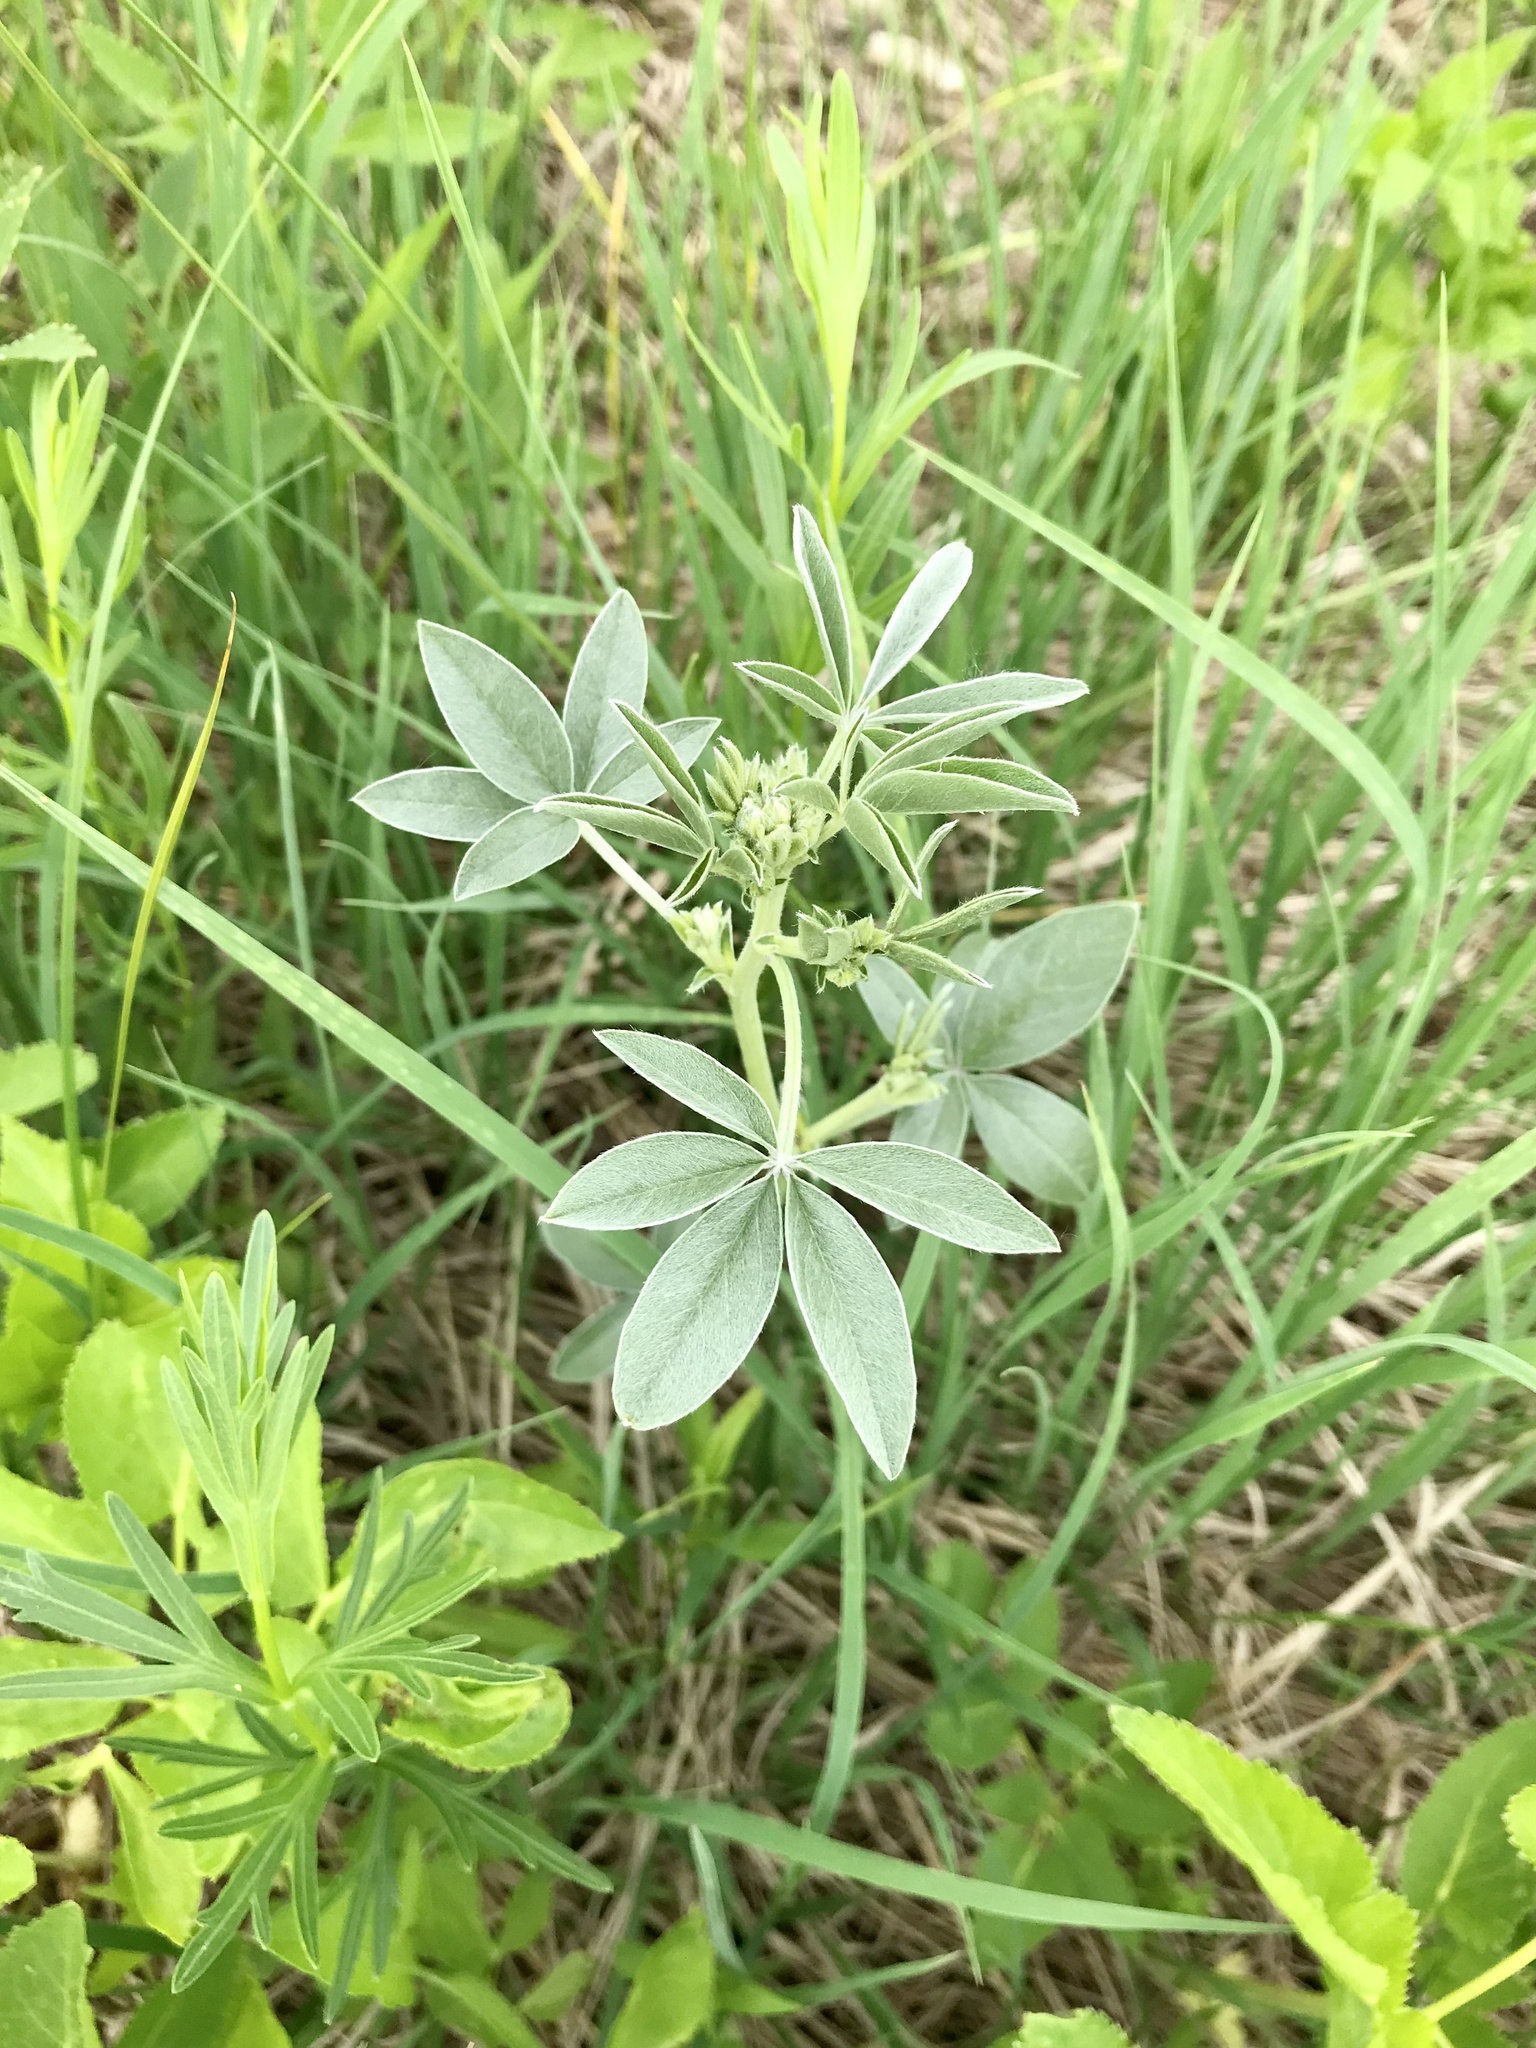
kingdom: Plantae
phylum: Tracheophyta
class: Magnoliopsida
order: Fabales
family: Fabaceae
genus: Pediomelum
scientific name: Pediomelum argophyllum
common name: Silver-leaved indian breadroot
